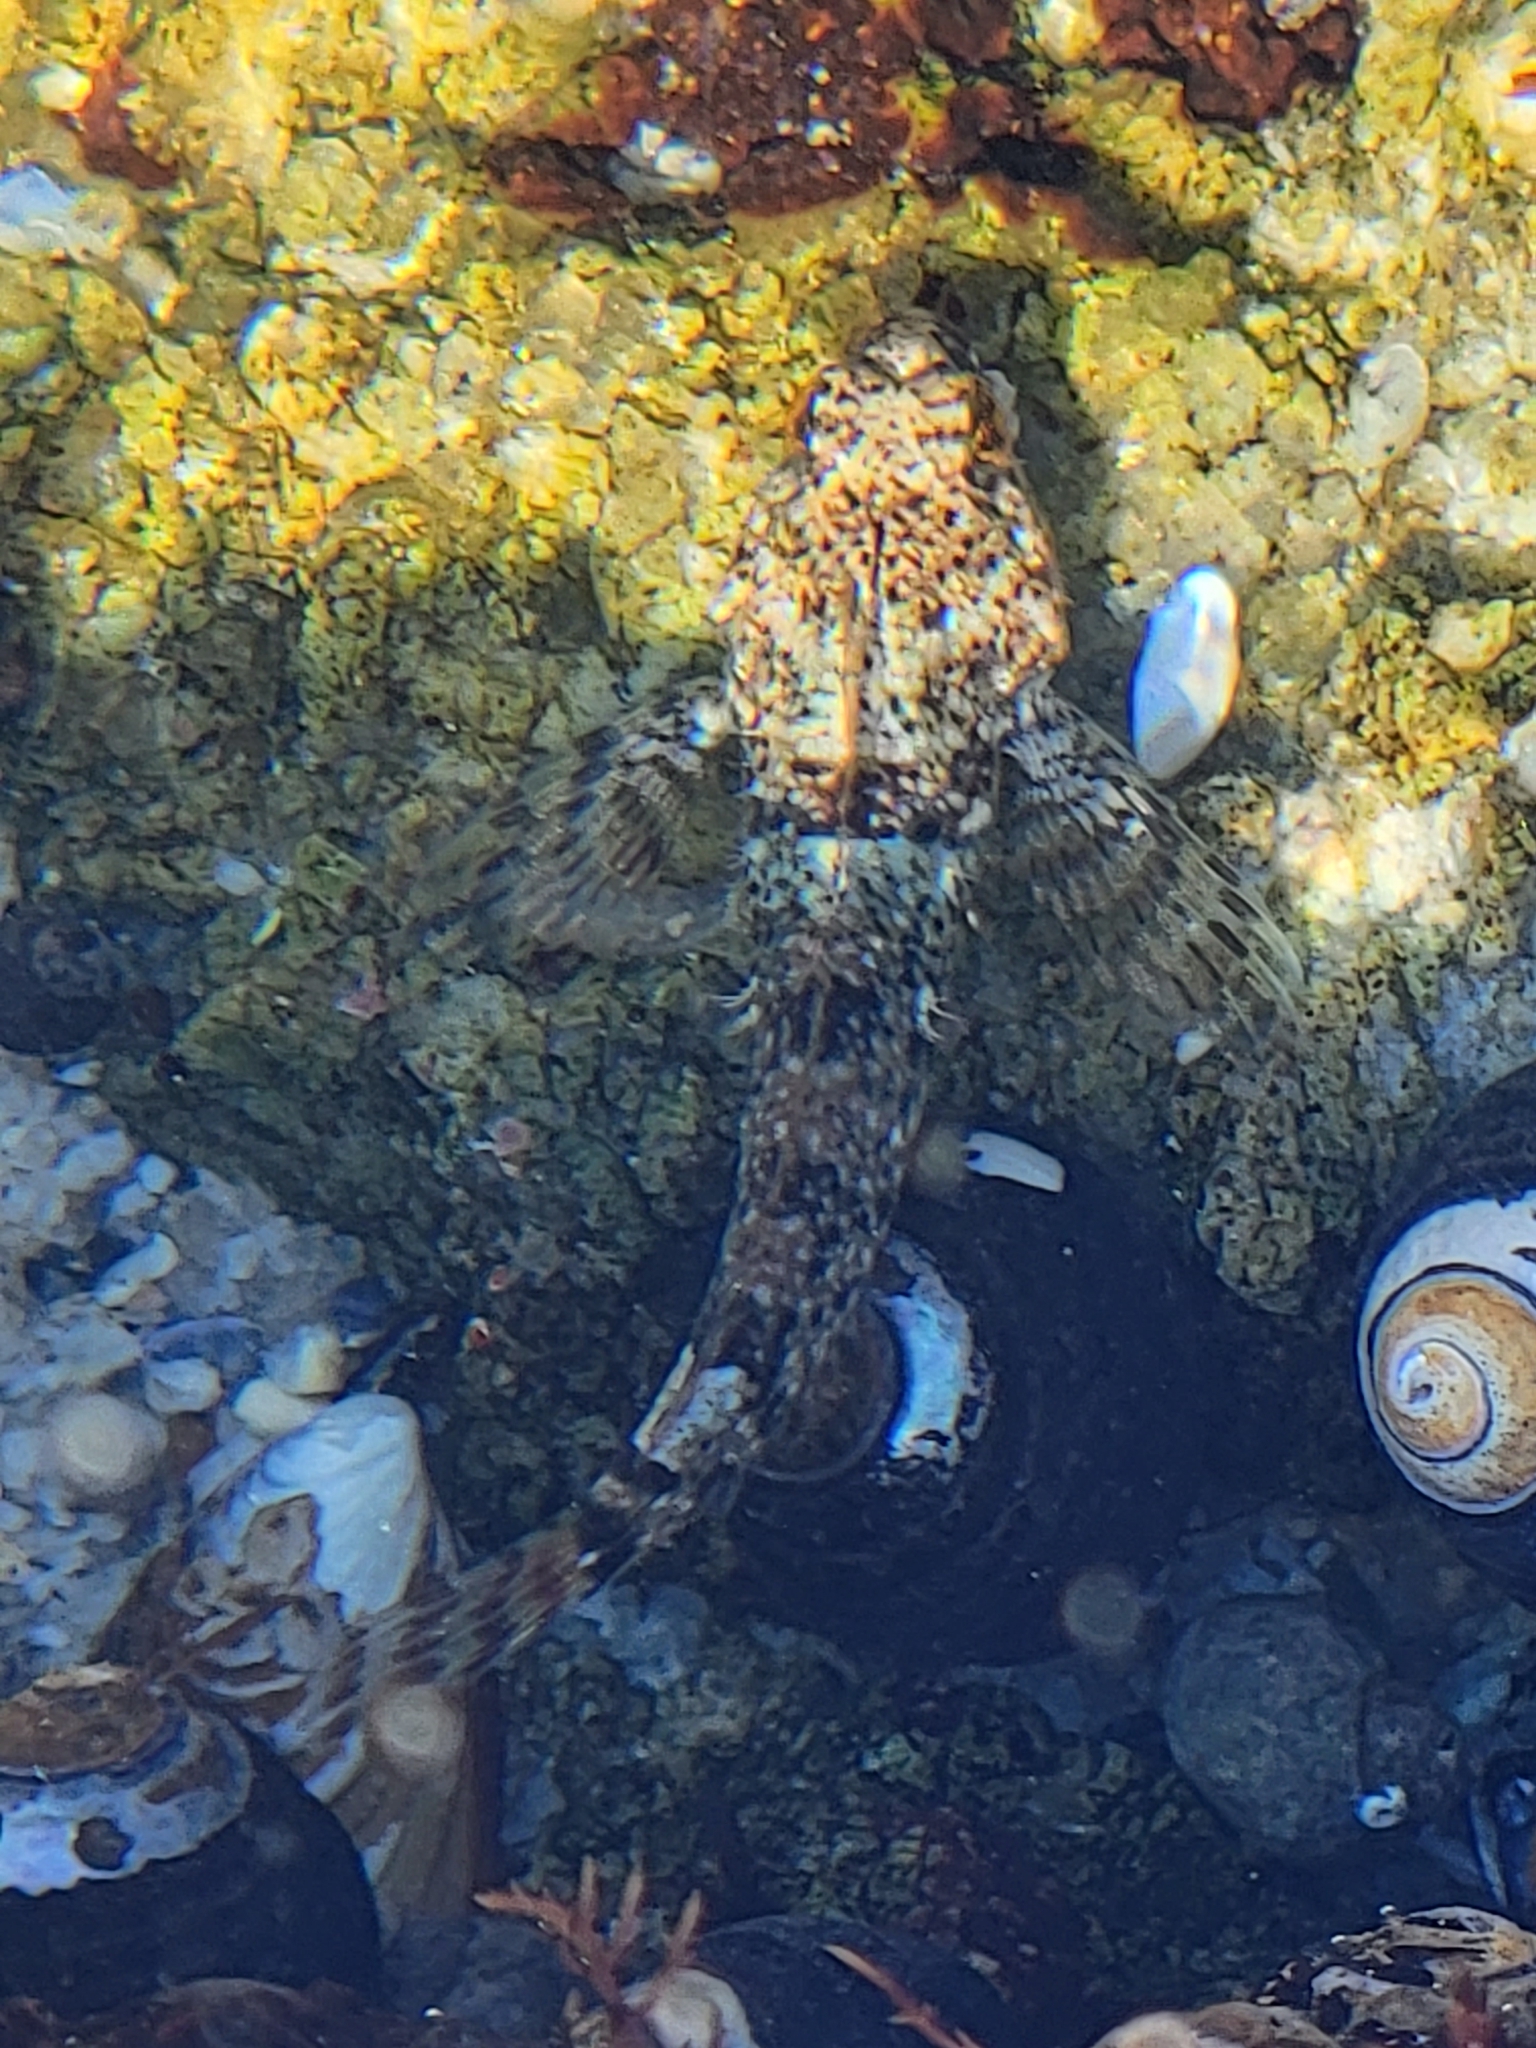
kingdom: Animalia
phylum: Chordata
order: Scorpaeniformes
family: Cottidae
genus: Clinocottus
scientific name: Clinocottus analis
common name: Woolly sculpin
